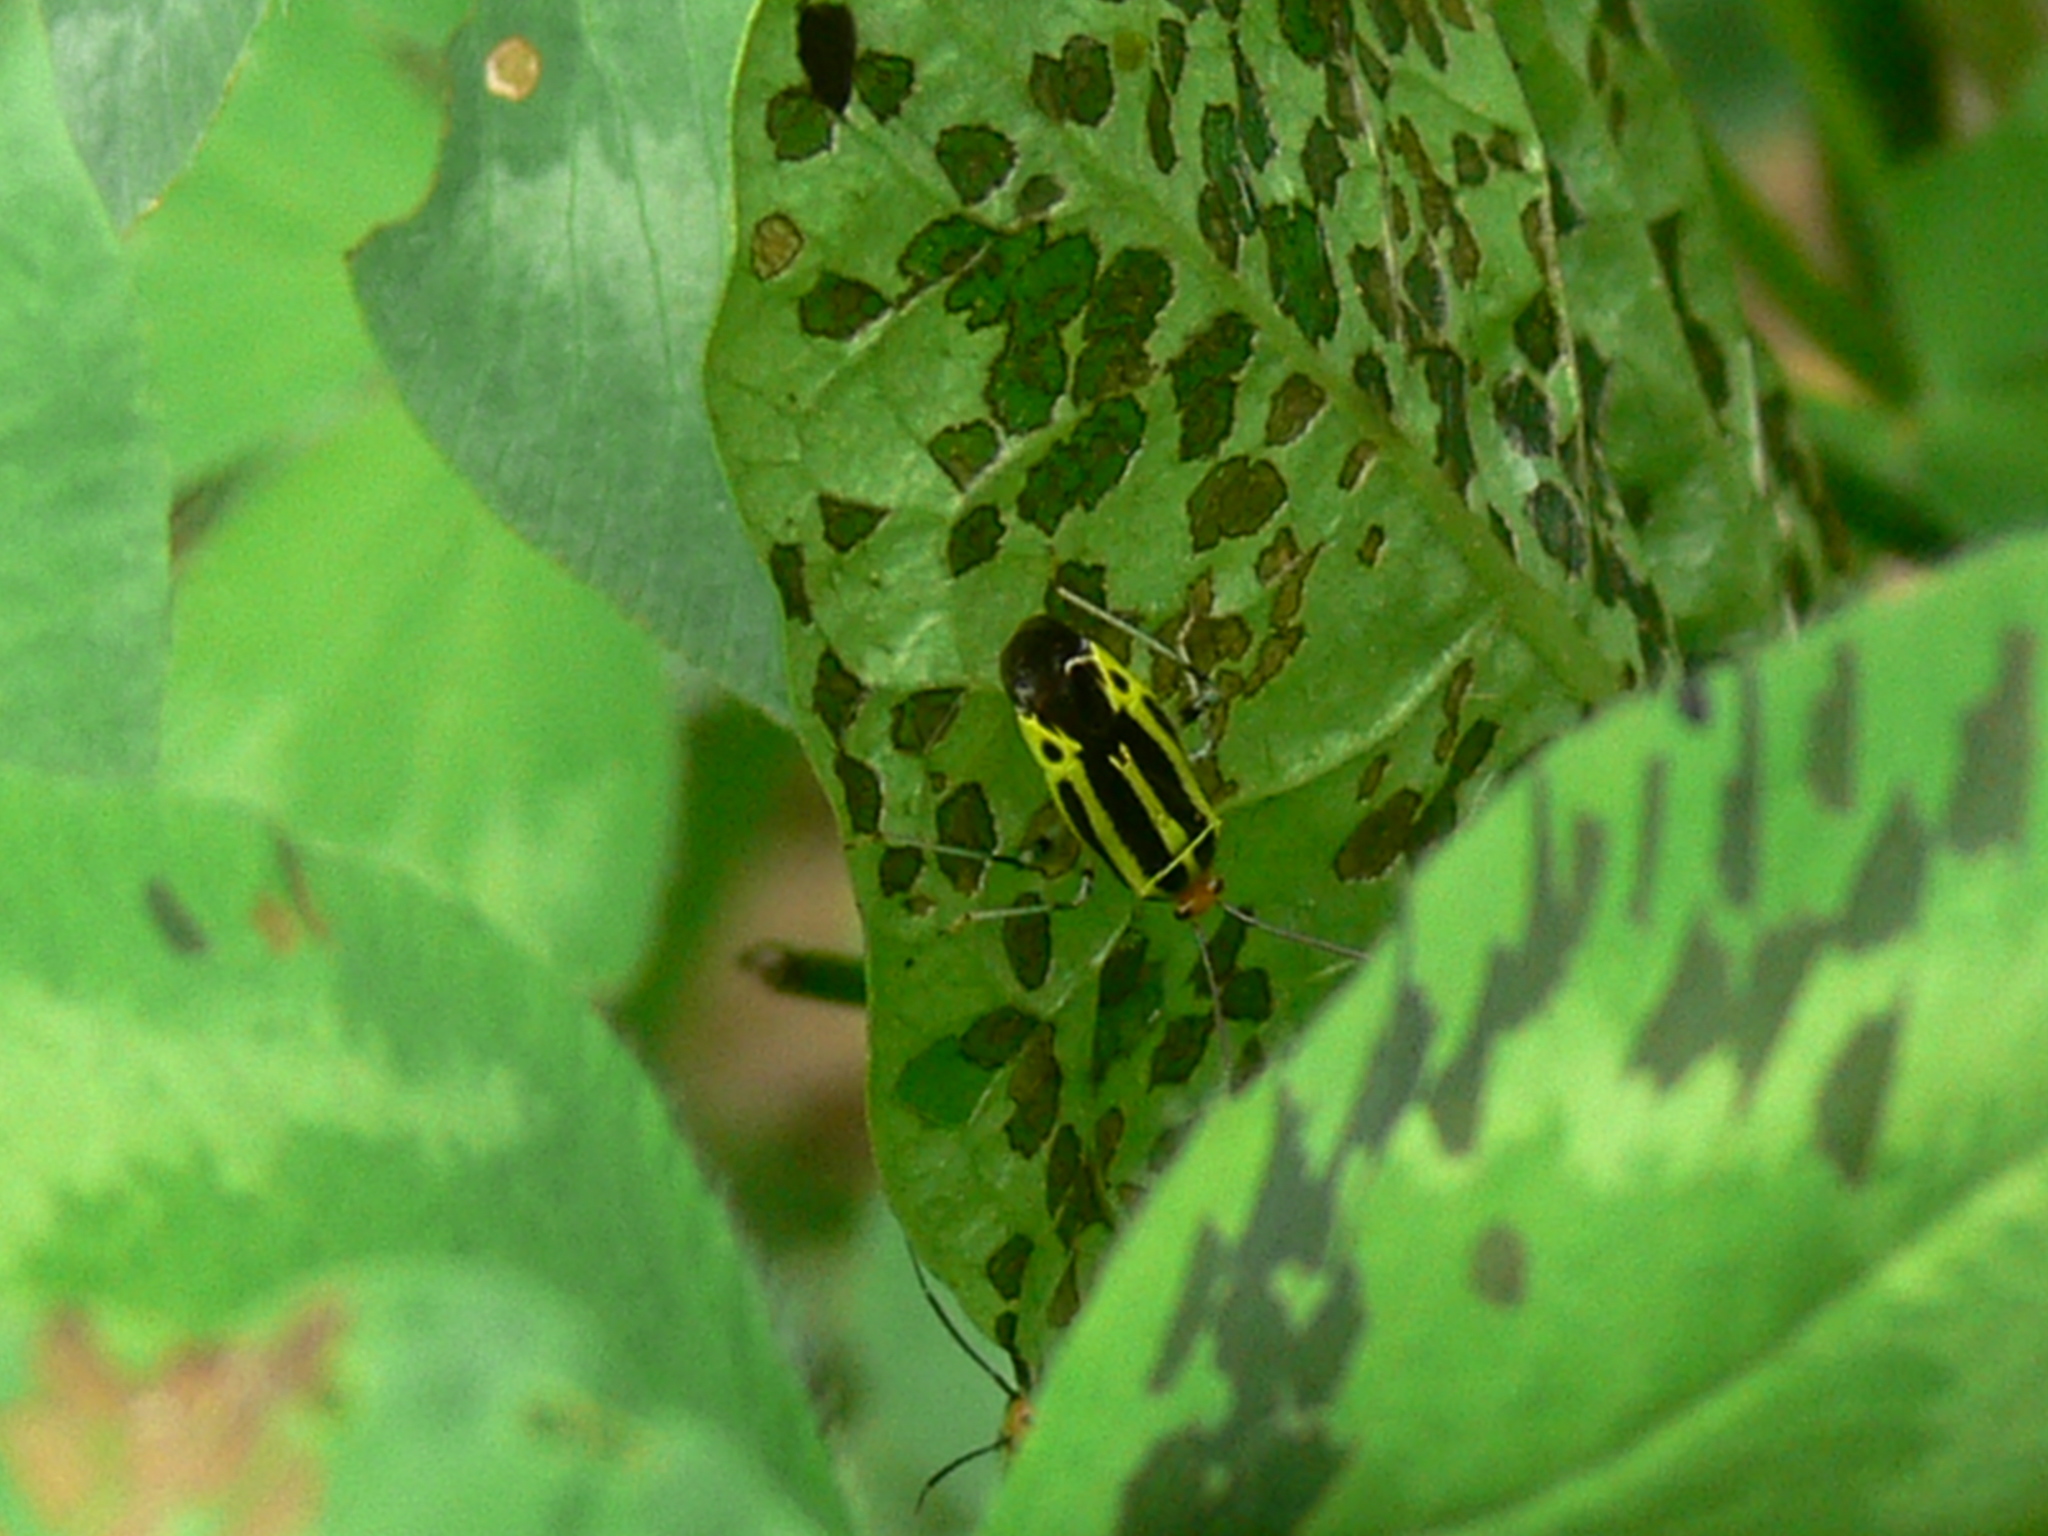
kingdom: Animalia
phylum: Arthropoda
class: Insecta
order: Hemiptera
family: Miridae
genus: Poecilocapsus
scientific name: Poecilocapsus lineatus
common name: Four-lined plant bug
